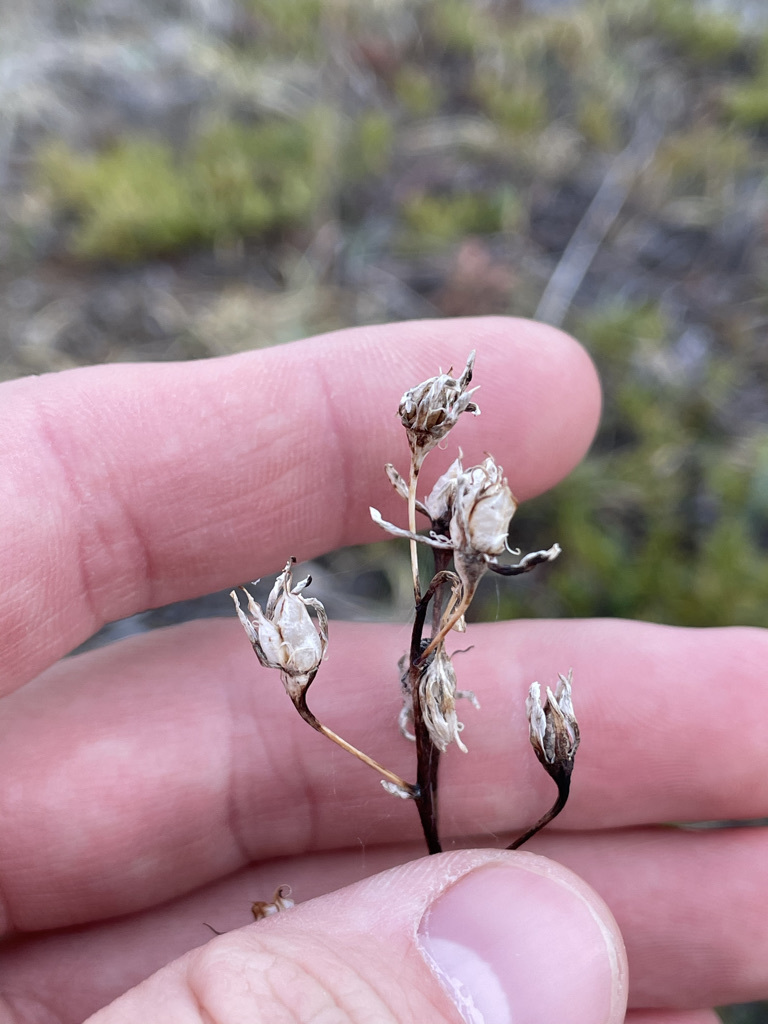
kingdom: Plantae
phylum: Tracheophyta
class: Liliopsida
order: Liliales
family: Melanthiaceae
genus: Anticlea
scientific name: Anticlea elegans
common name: Mountain death camas
